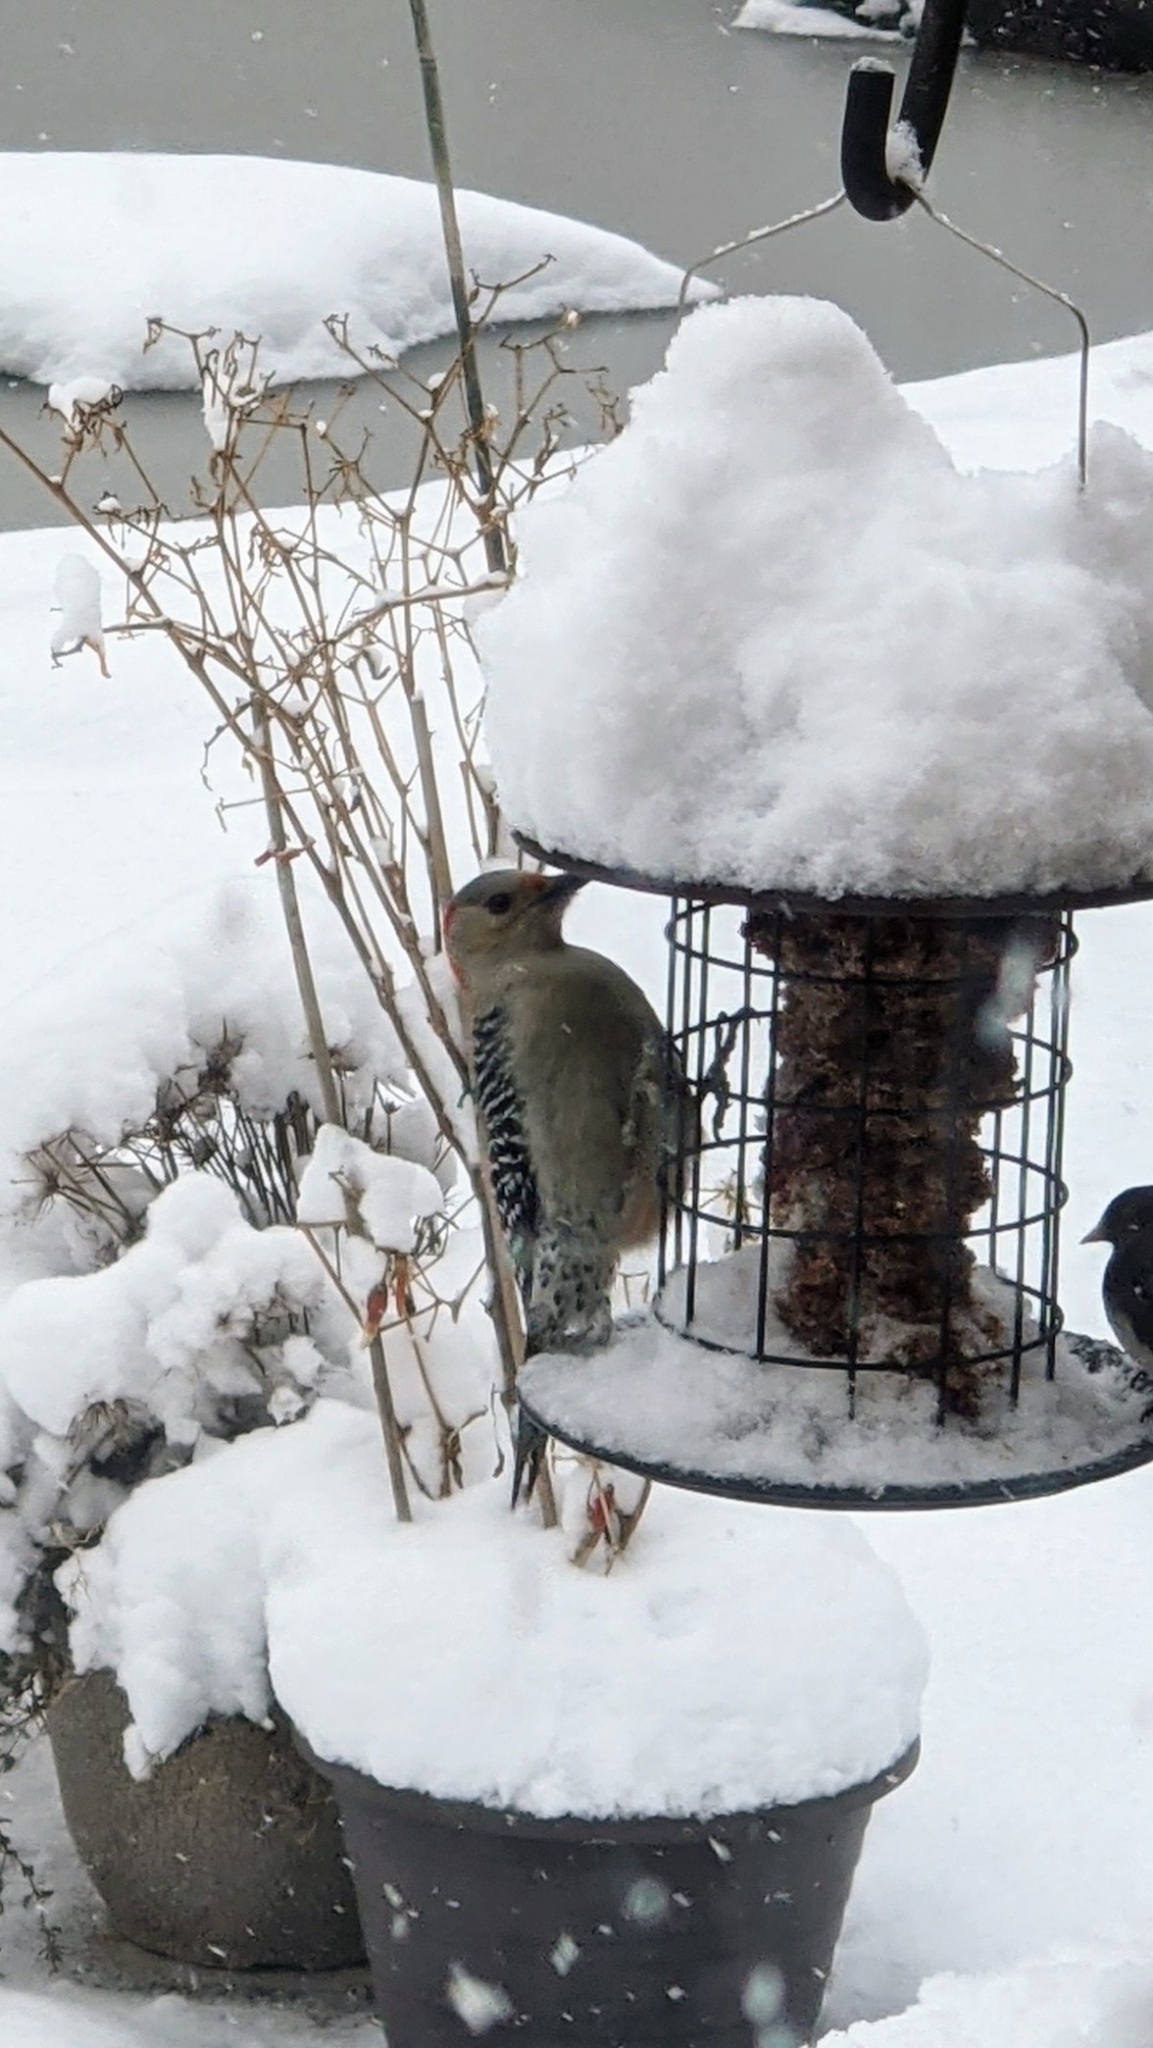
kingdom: Animalia
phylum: Chordata
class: Aves
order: Piciformes
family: Picidae
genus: Melanerpes
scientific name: Melanerpes carolinus
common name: Red-bellied woodpecker
